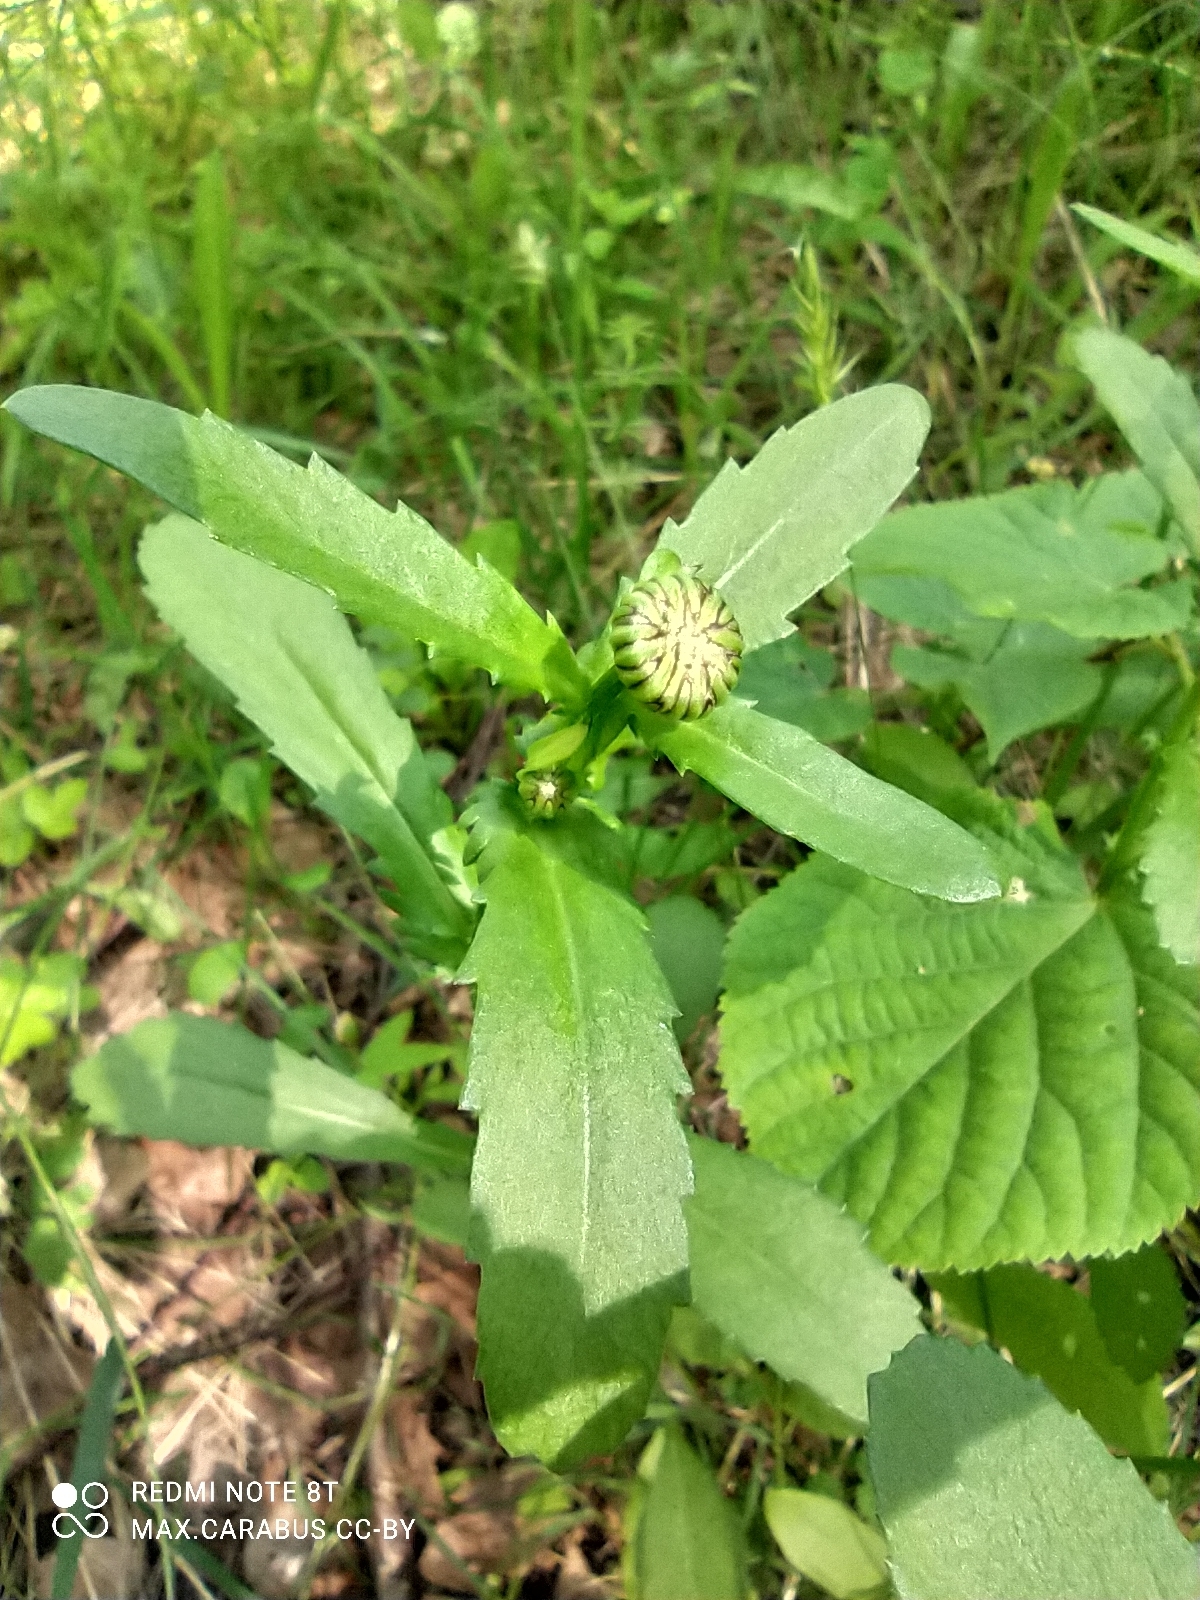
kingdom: Plantae
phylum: Tracheophyta
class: Magnoliopsida
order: Asterales
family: Asteraceae
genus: Leucanthemum
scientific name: Leucanthemum vulgare
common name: Oxeye daisy
